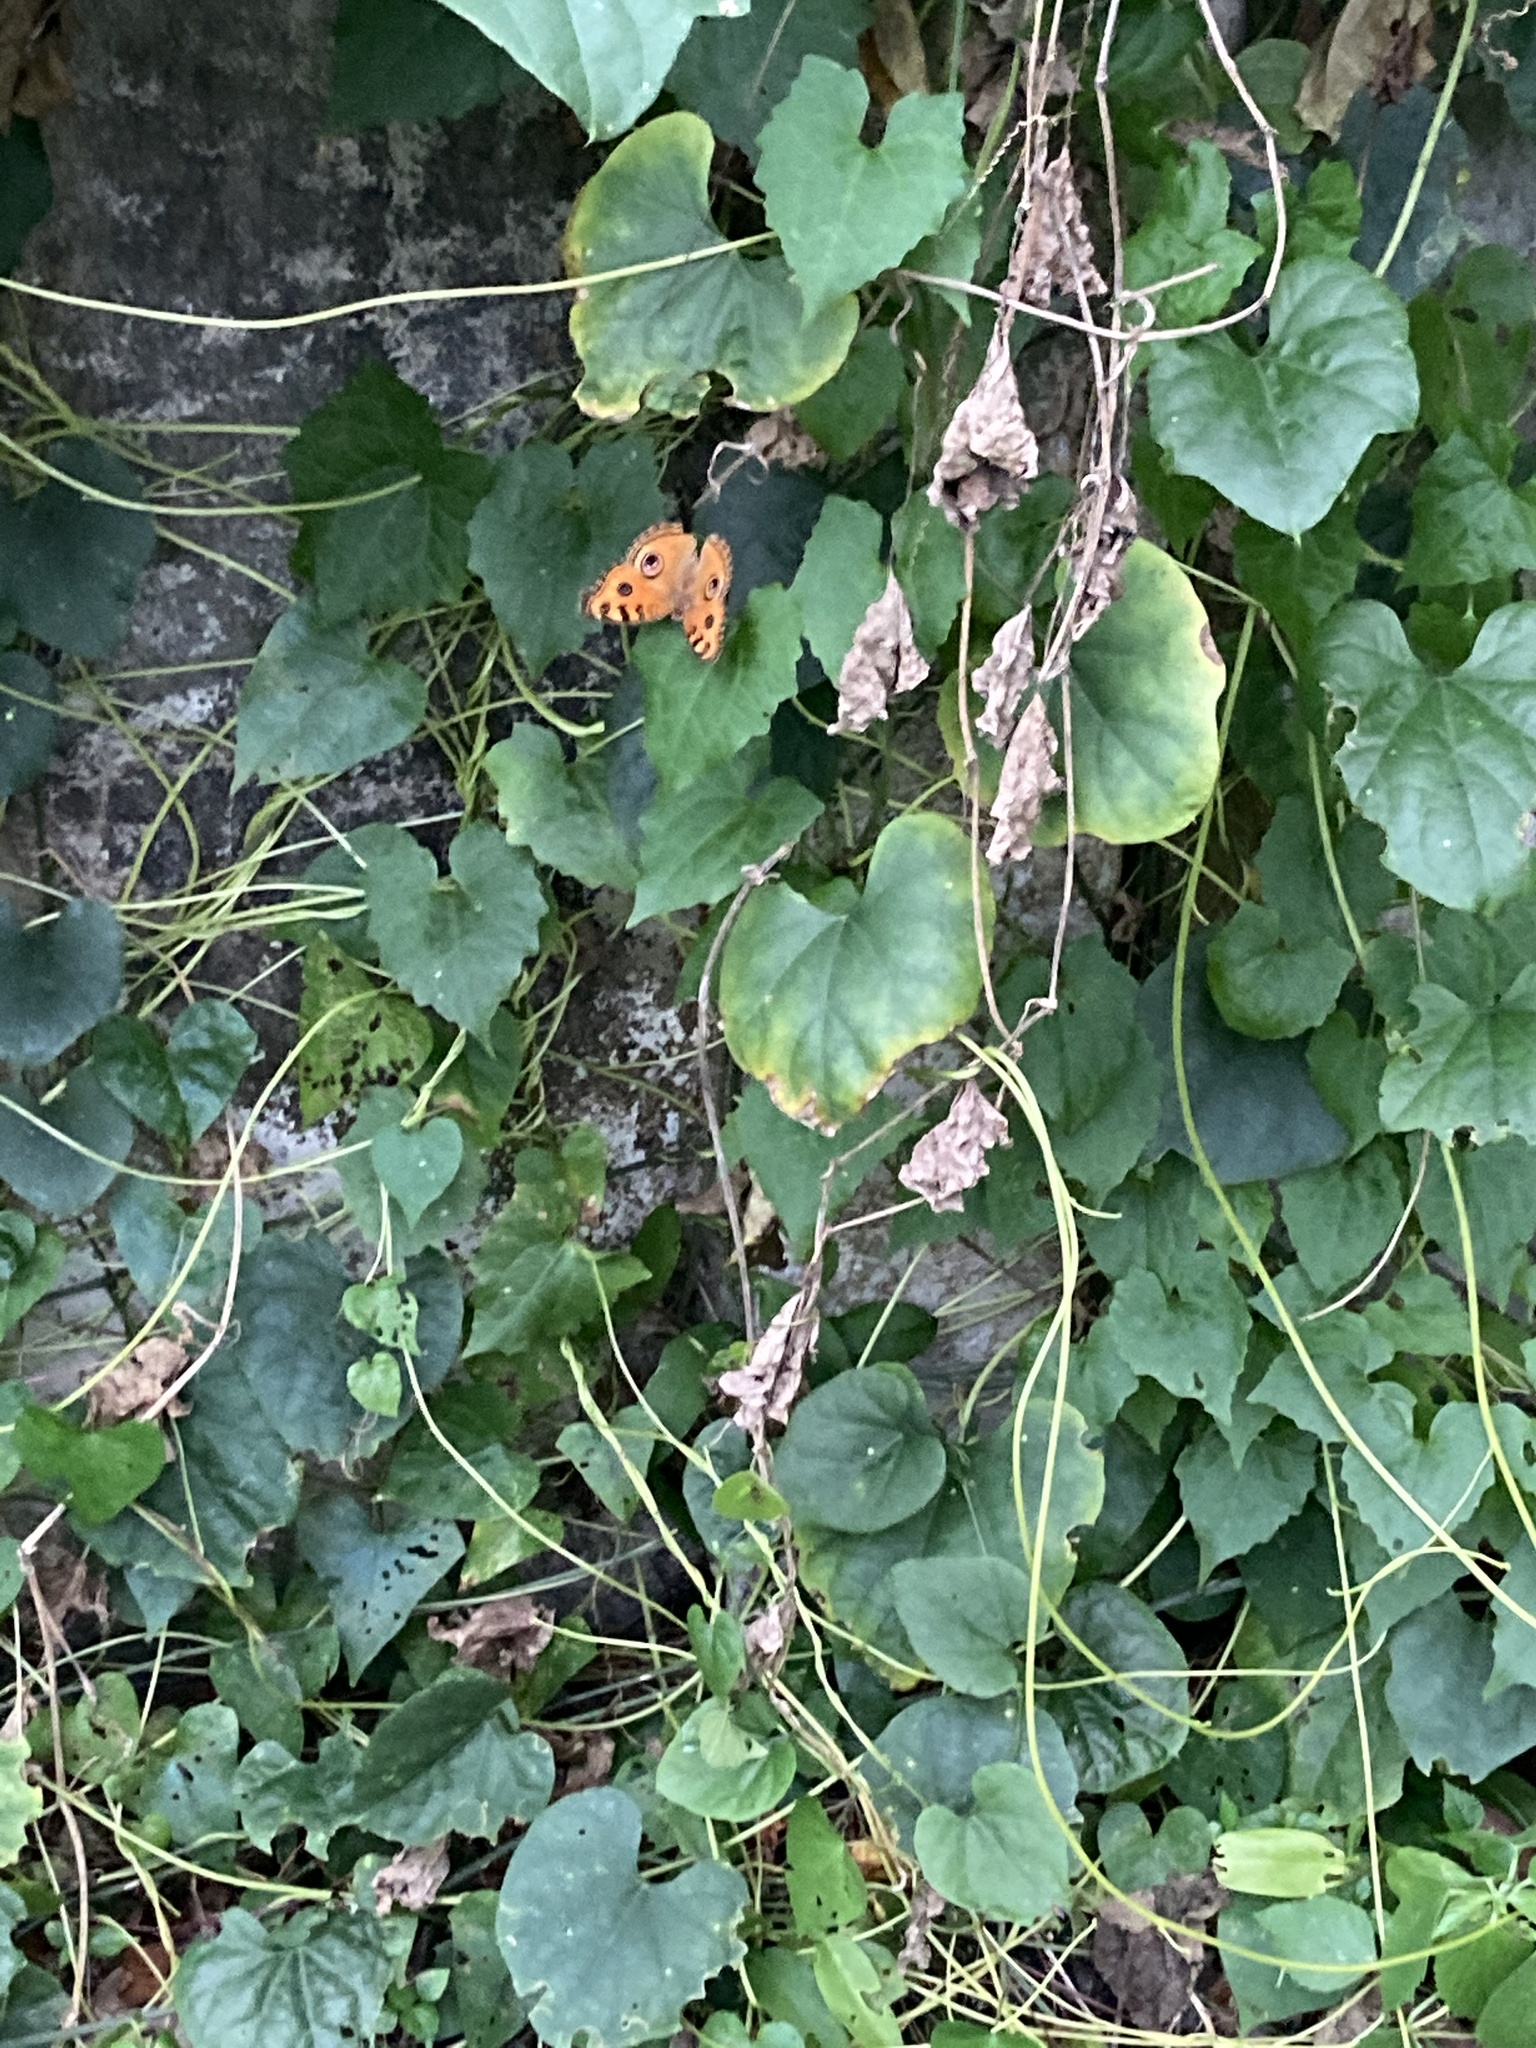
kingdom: Animalia
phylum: Arthropoda
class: Insecta
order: Lepidoptera
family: Nymphalidae
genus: Junonia
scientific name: Junonia almana
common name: Peacock pansy
